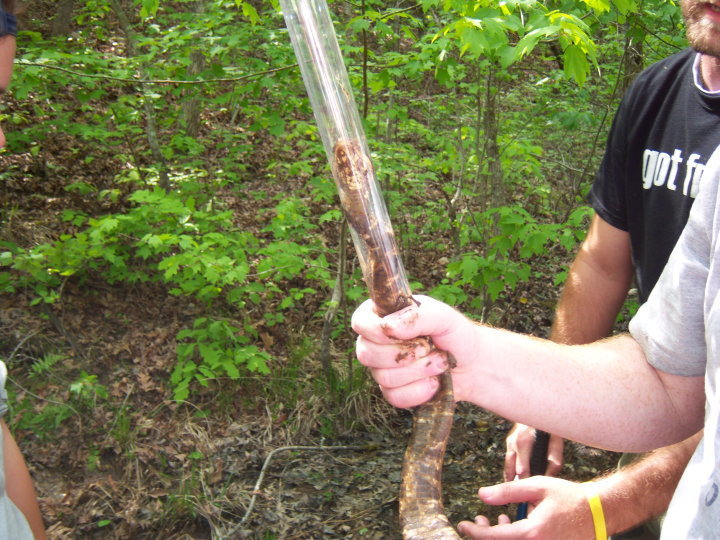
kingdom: Animalia
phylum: Chordata
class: Squamata
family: Viperidae
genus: Agkistrodon
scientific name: Agkistrodon contortrix
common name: Northern copperhead
